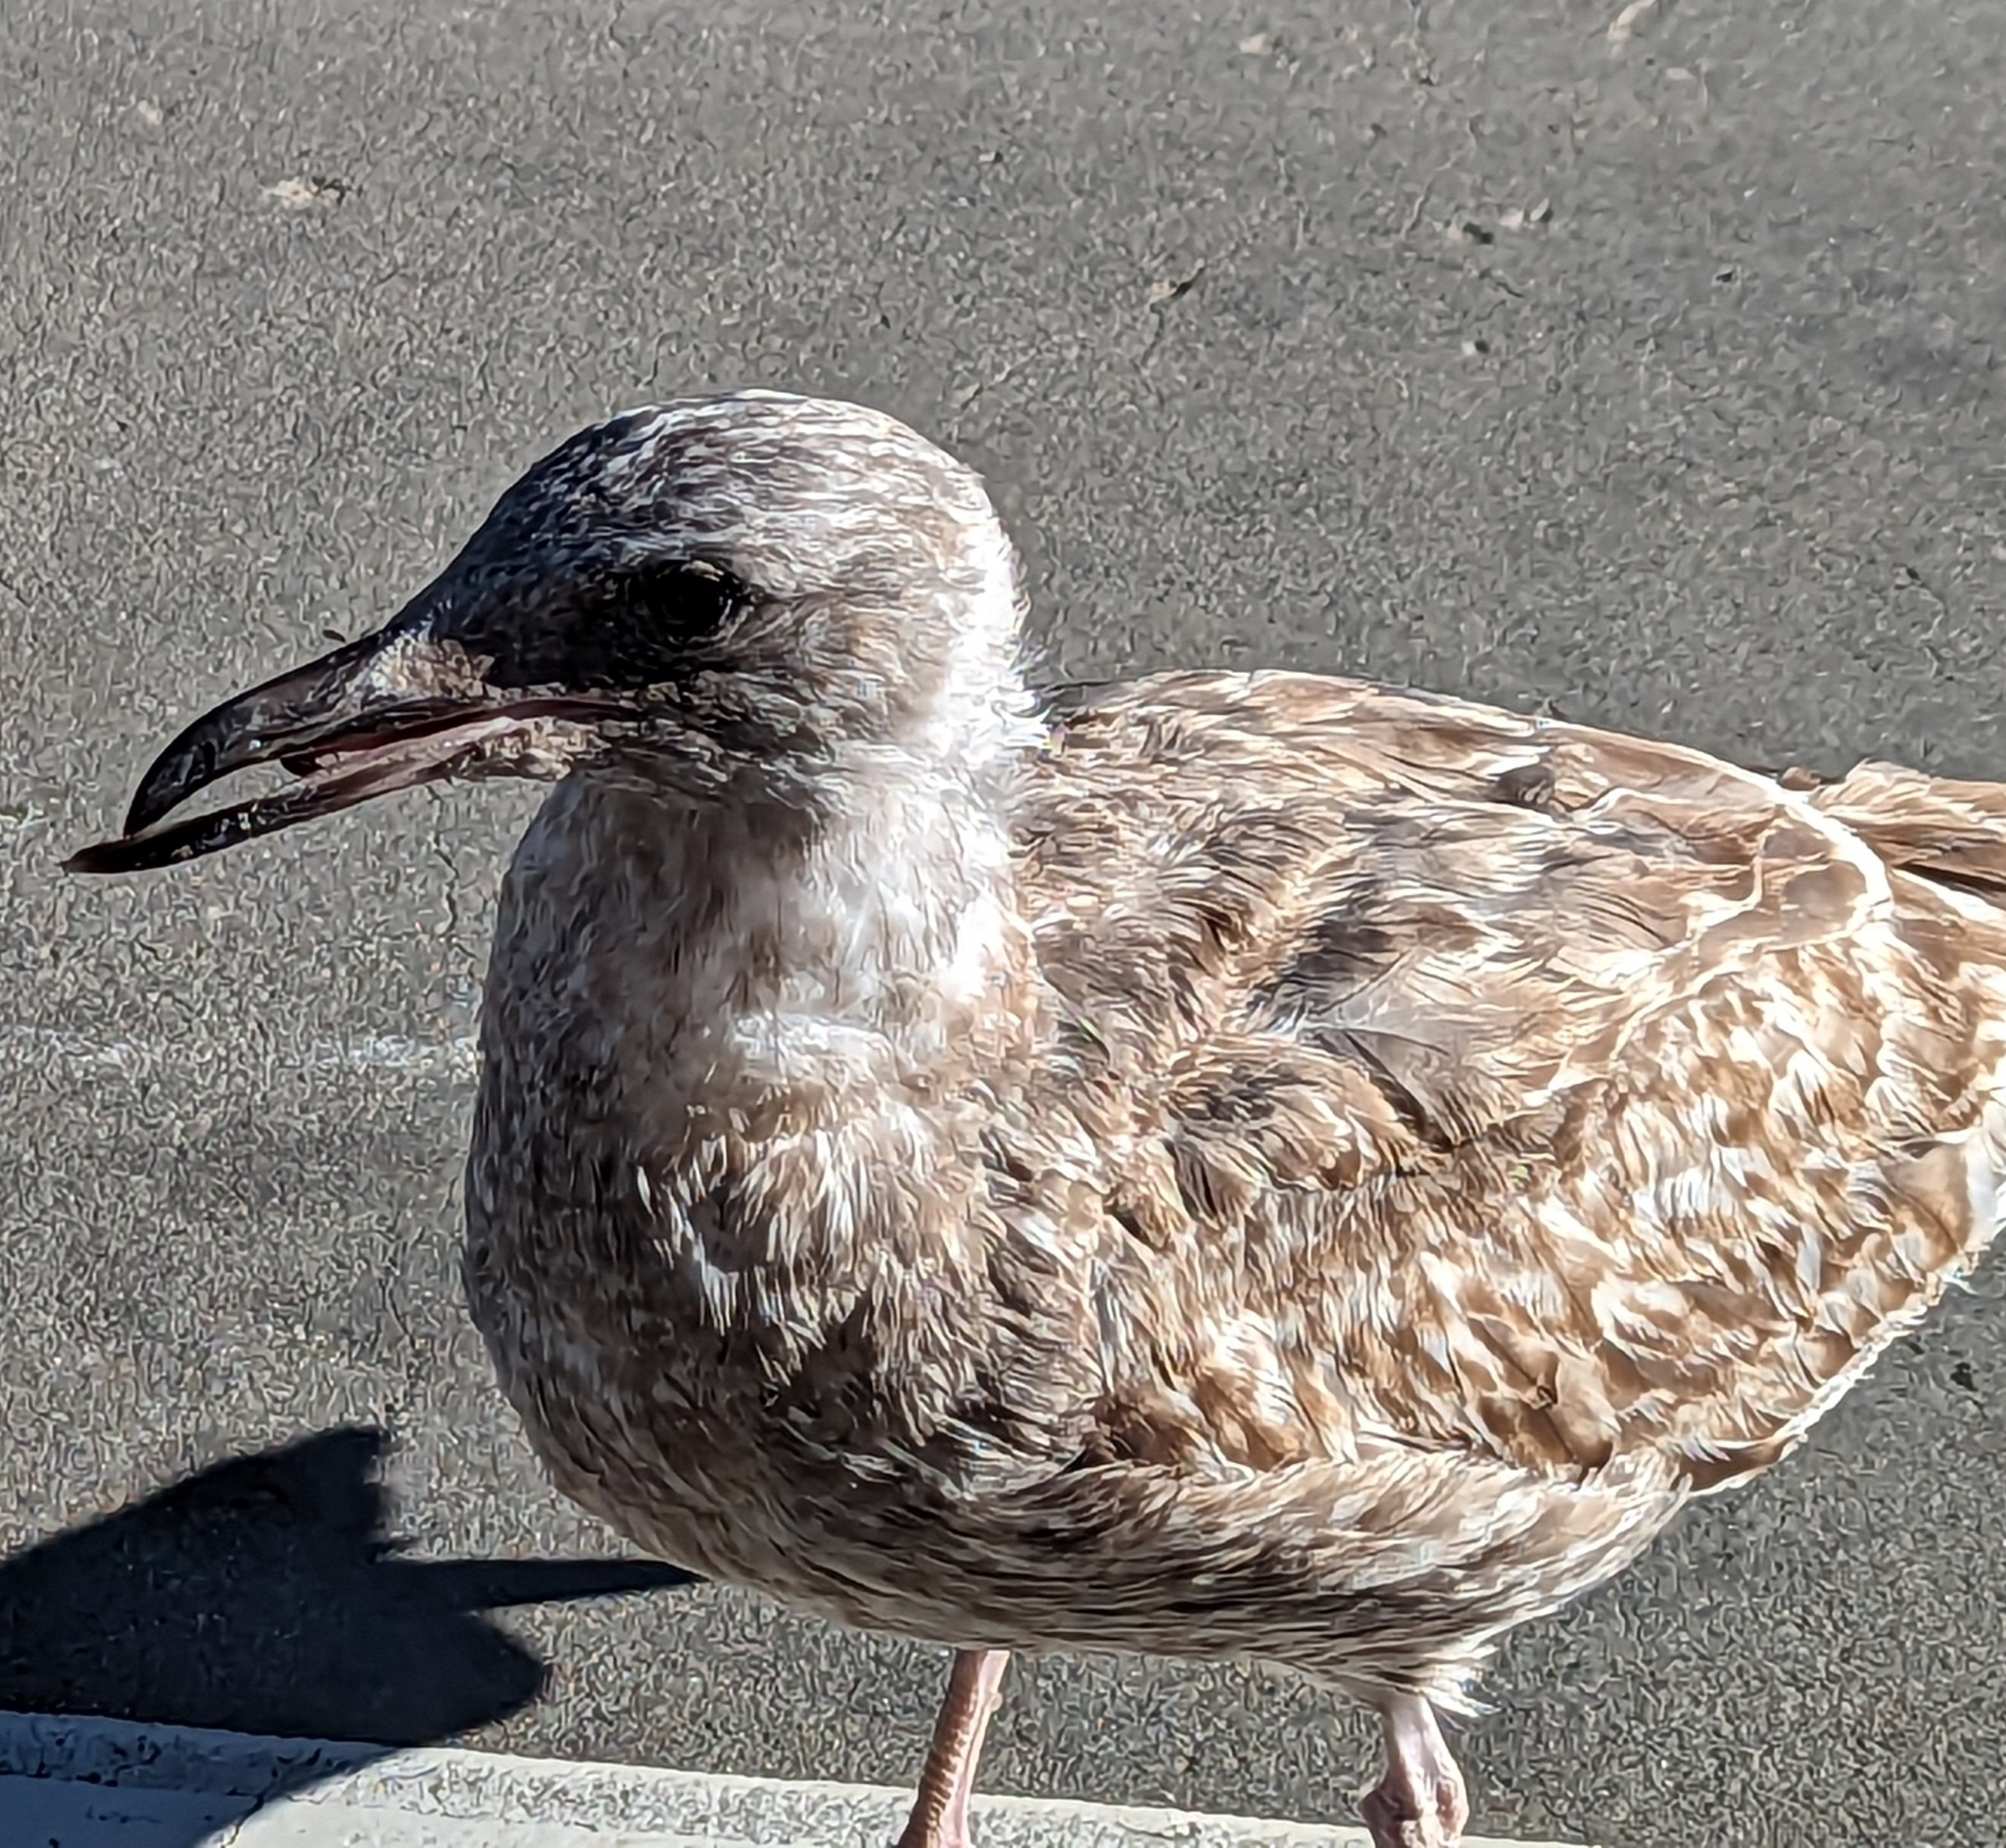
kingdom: Animalia
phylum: Chordata
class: Aves
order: Charadriiformes
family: Laridae
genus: Larus
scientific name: Larus occidentalis
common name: Western gull
